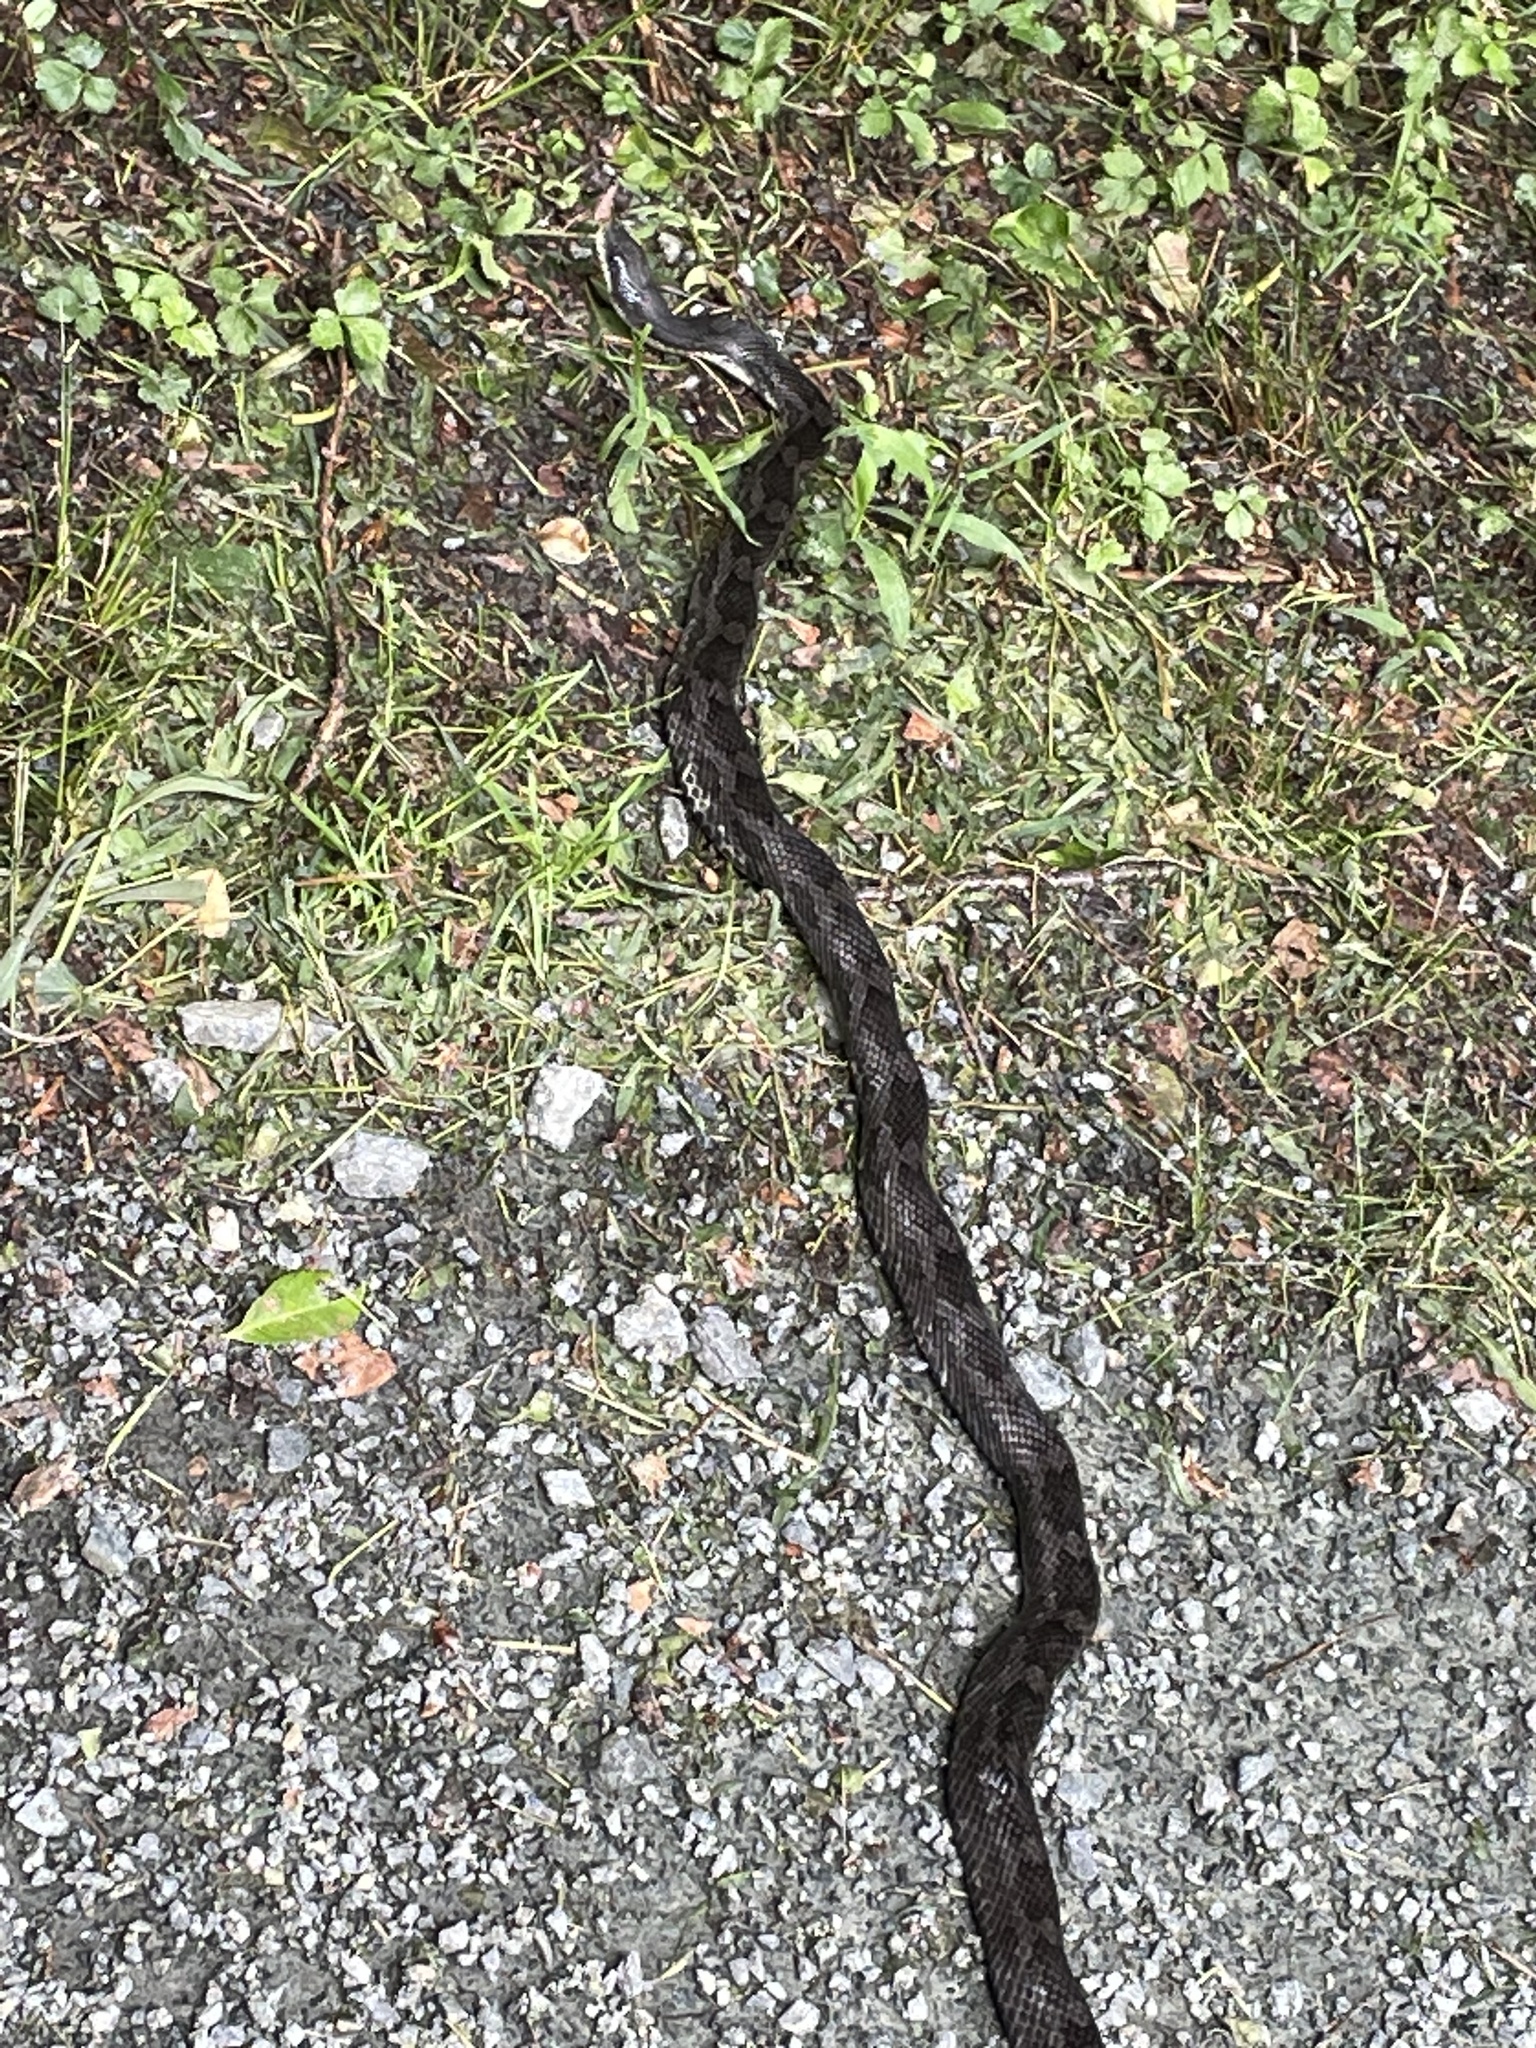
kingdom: Animalia
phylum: Chordata
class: Squamata
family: Colubridae
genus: Pantherophis
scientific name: Pantherophis
